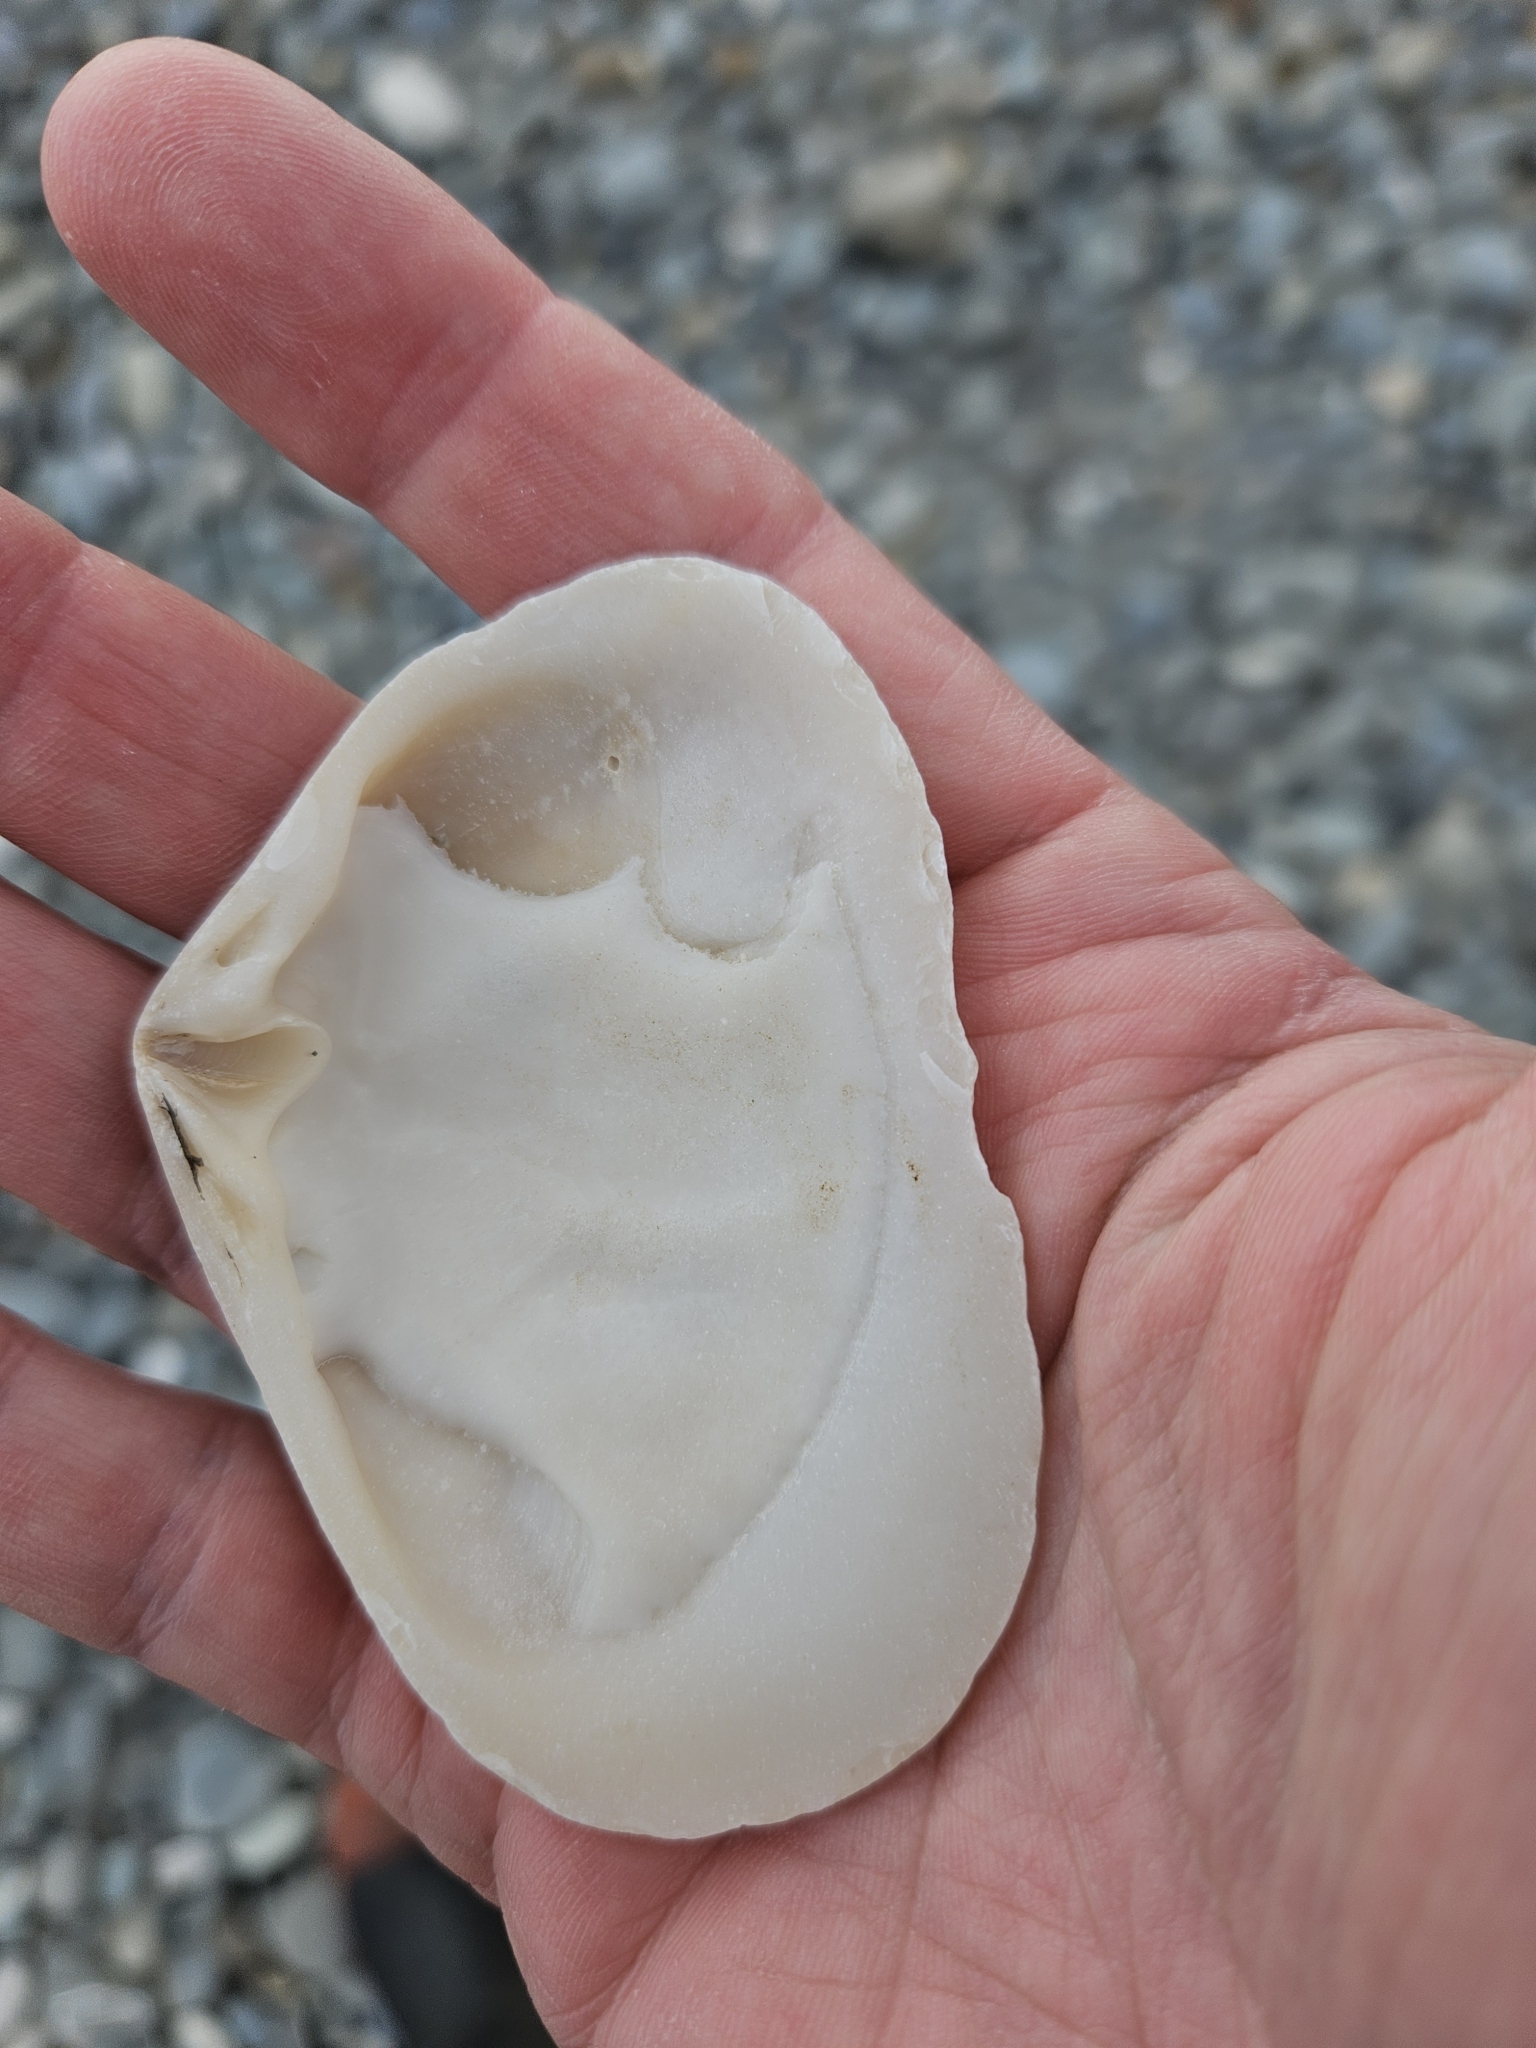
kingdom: Animalia
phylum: Mollusca
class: Bivalvia
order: Venerida
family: Mesodesmatidae
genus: Paphies
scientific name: Paphies donacina
